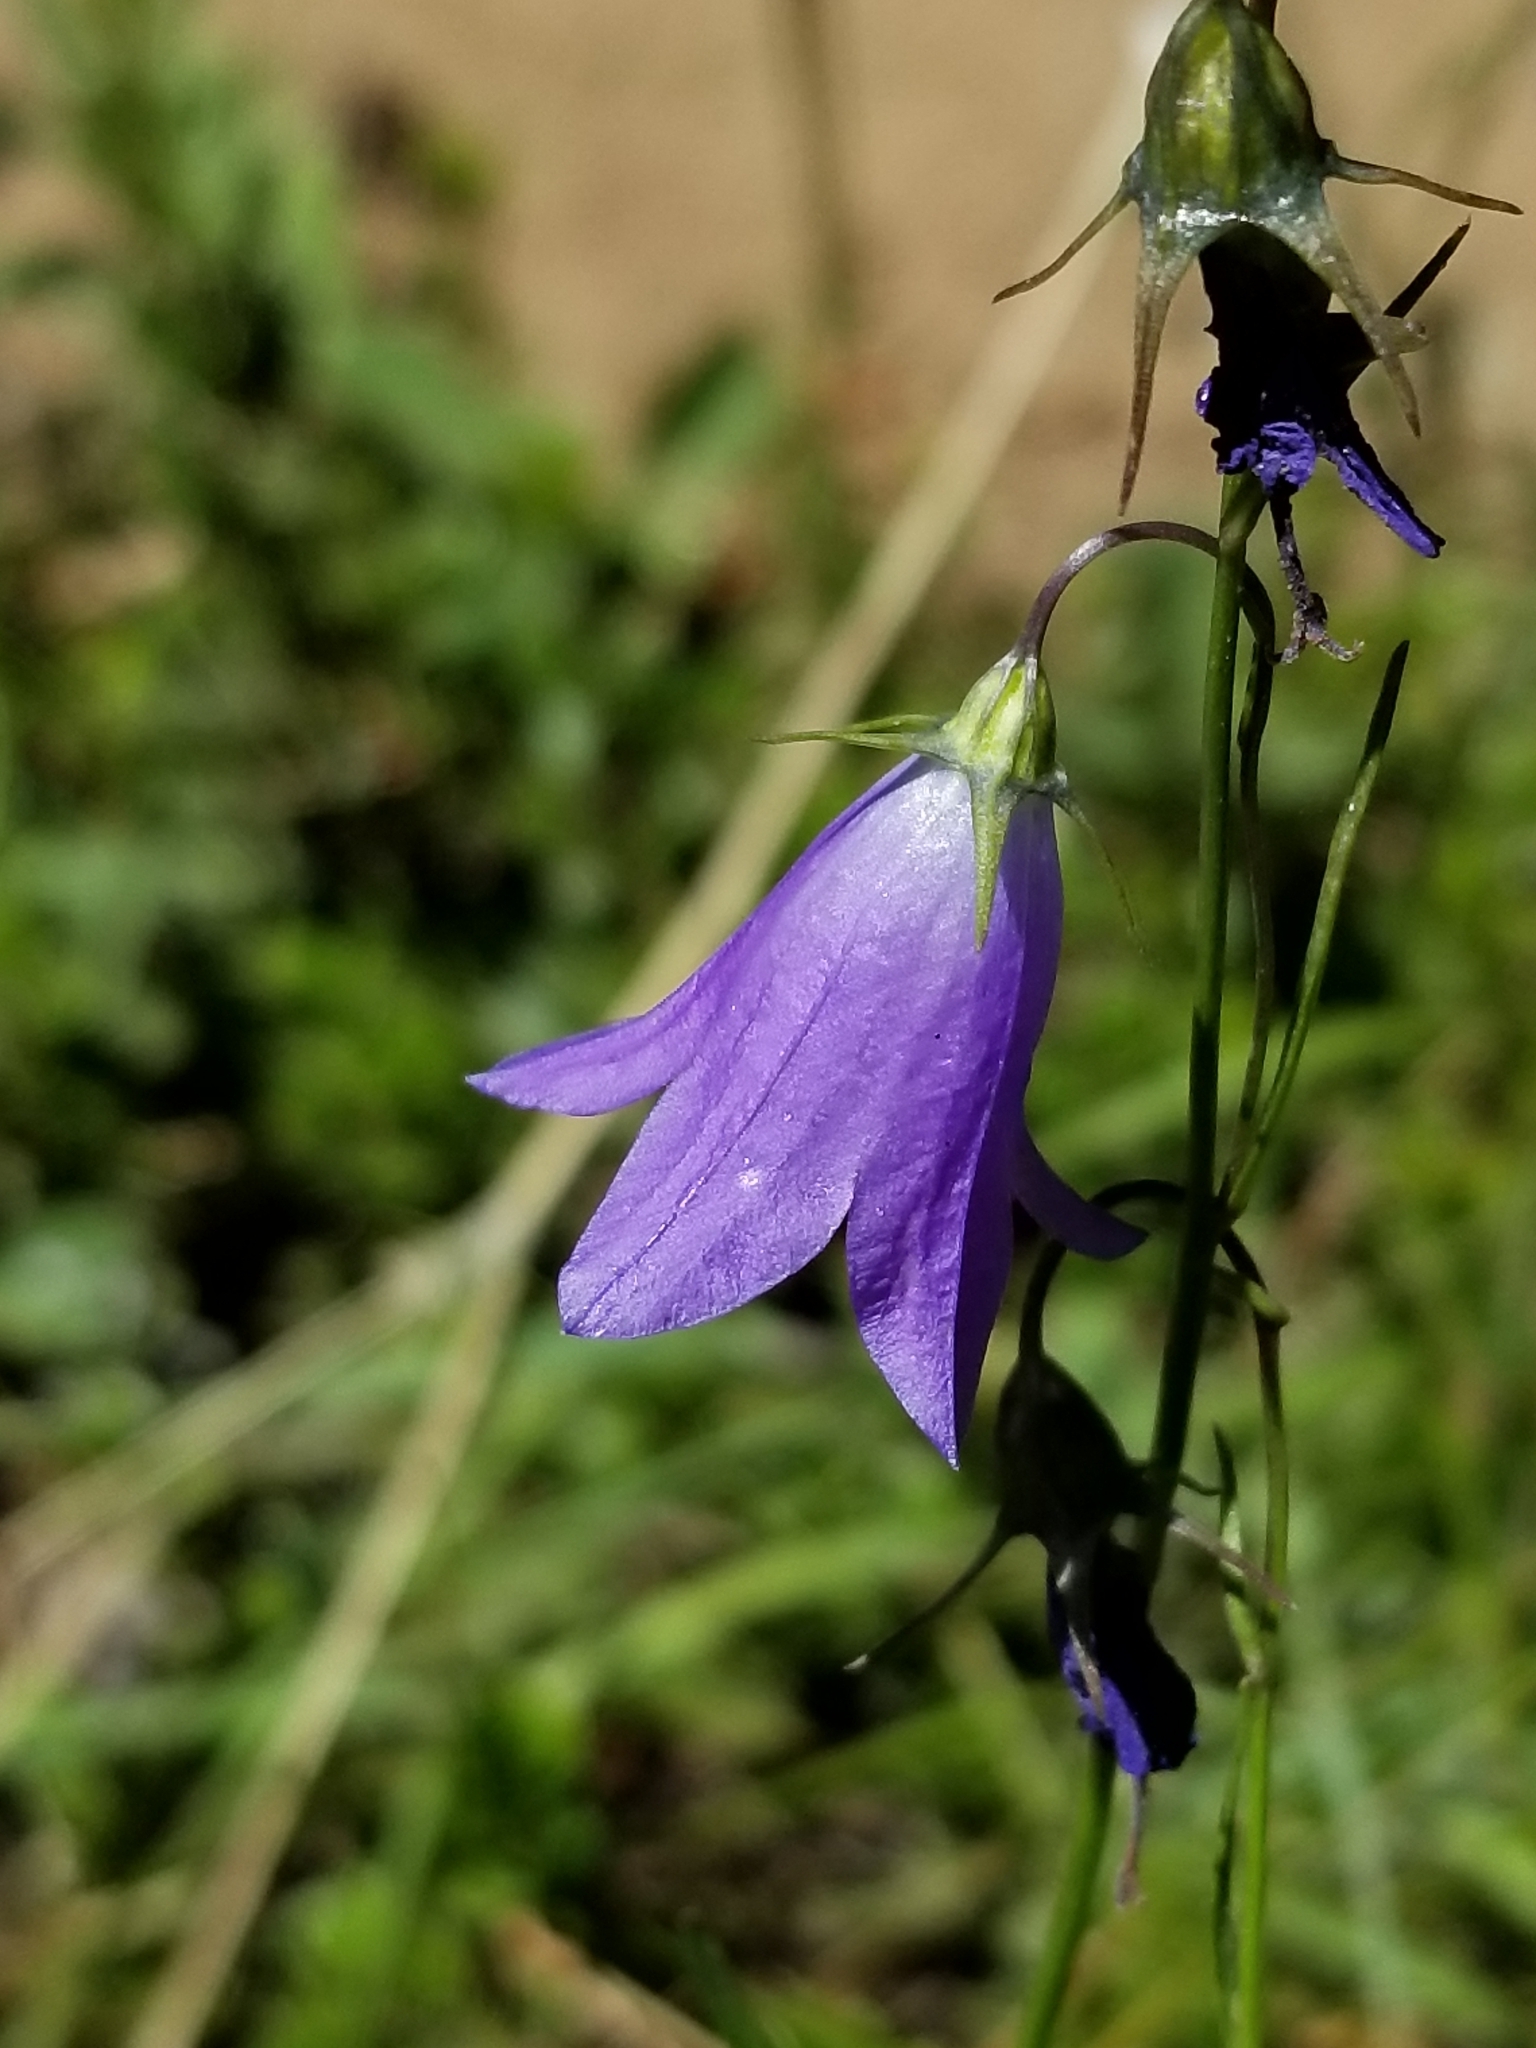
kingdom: Plantae
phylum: Tracheophyta
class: Magnoliopsida
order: Asterales
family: Campanulaceae
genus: Campanula
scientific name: Campanula petiolata
